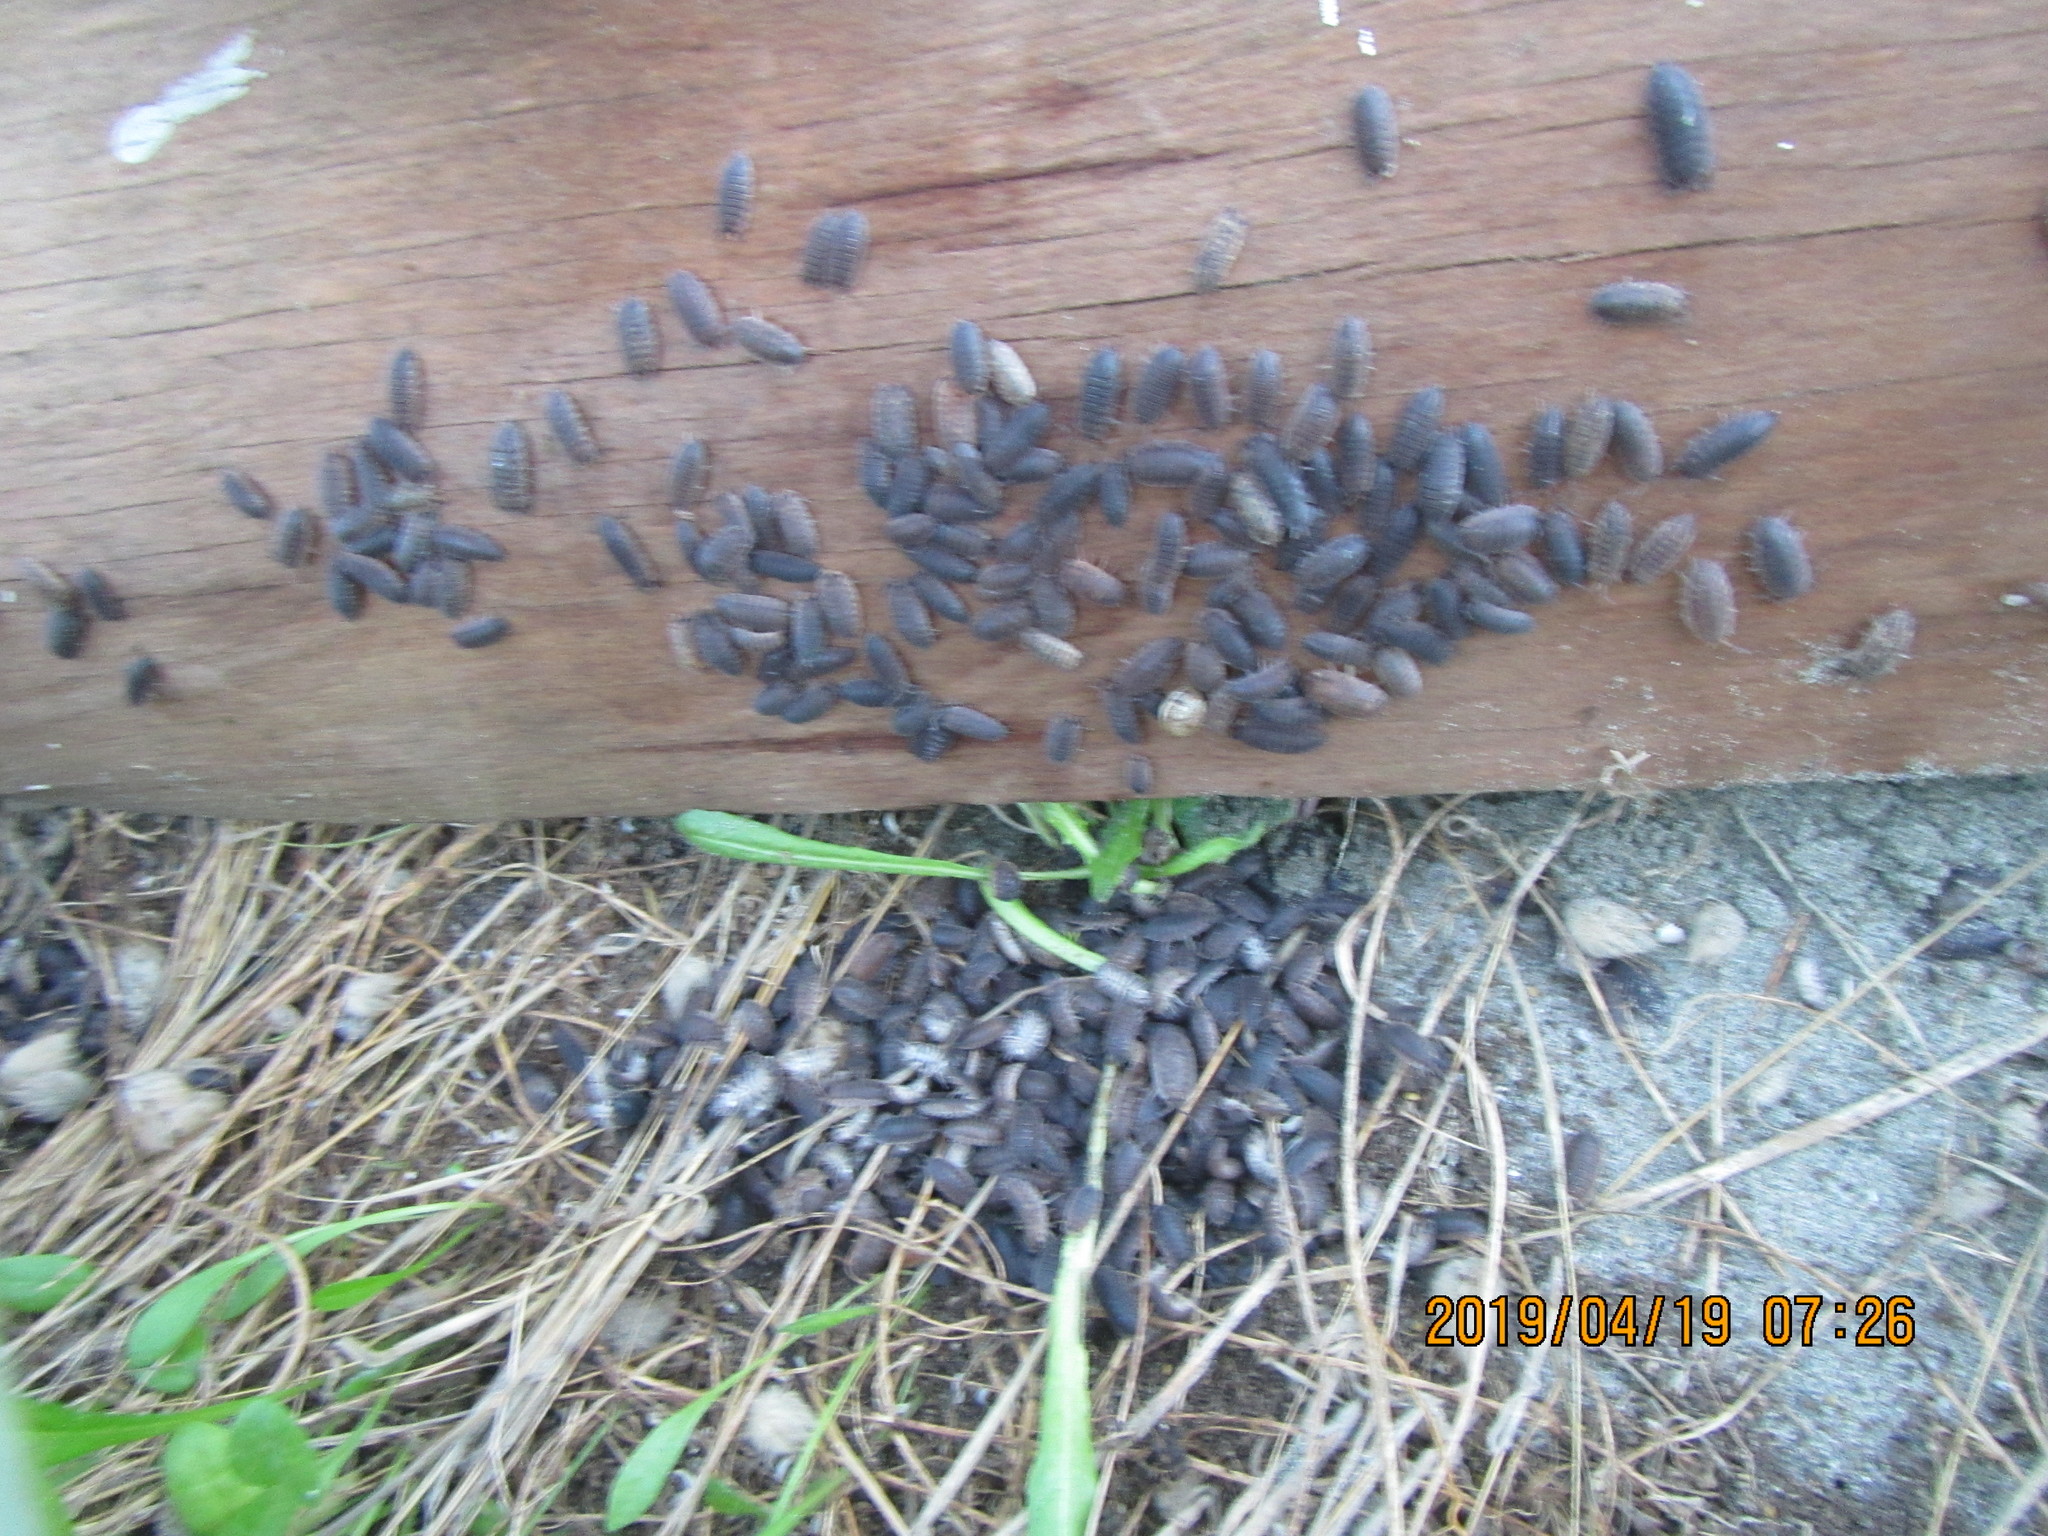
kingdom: Animalia
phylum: Arthropoda
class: Malacostraca
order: Isopoda
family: Porcellionidae
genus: Porcellio
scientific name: Porcellio scaber
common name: Common rough woodlouse
